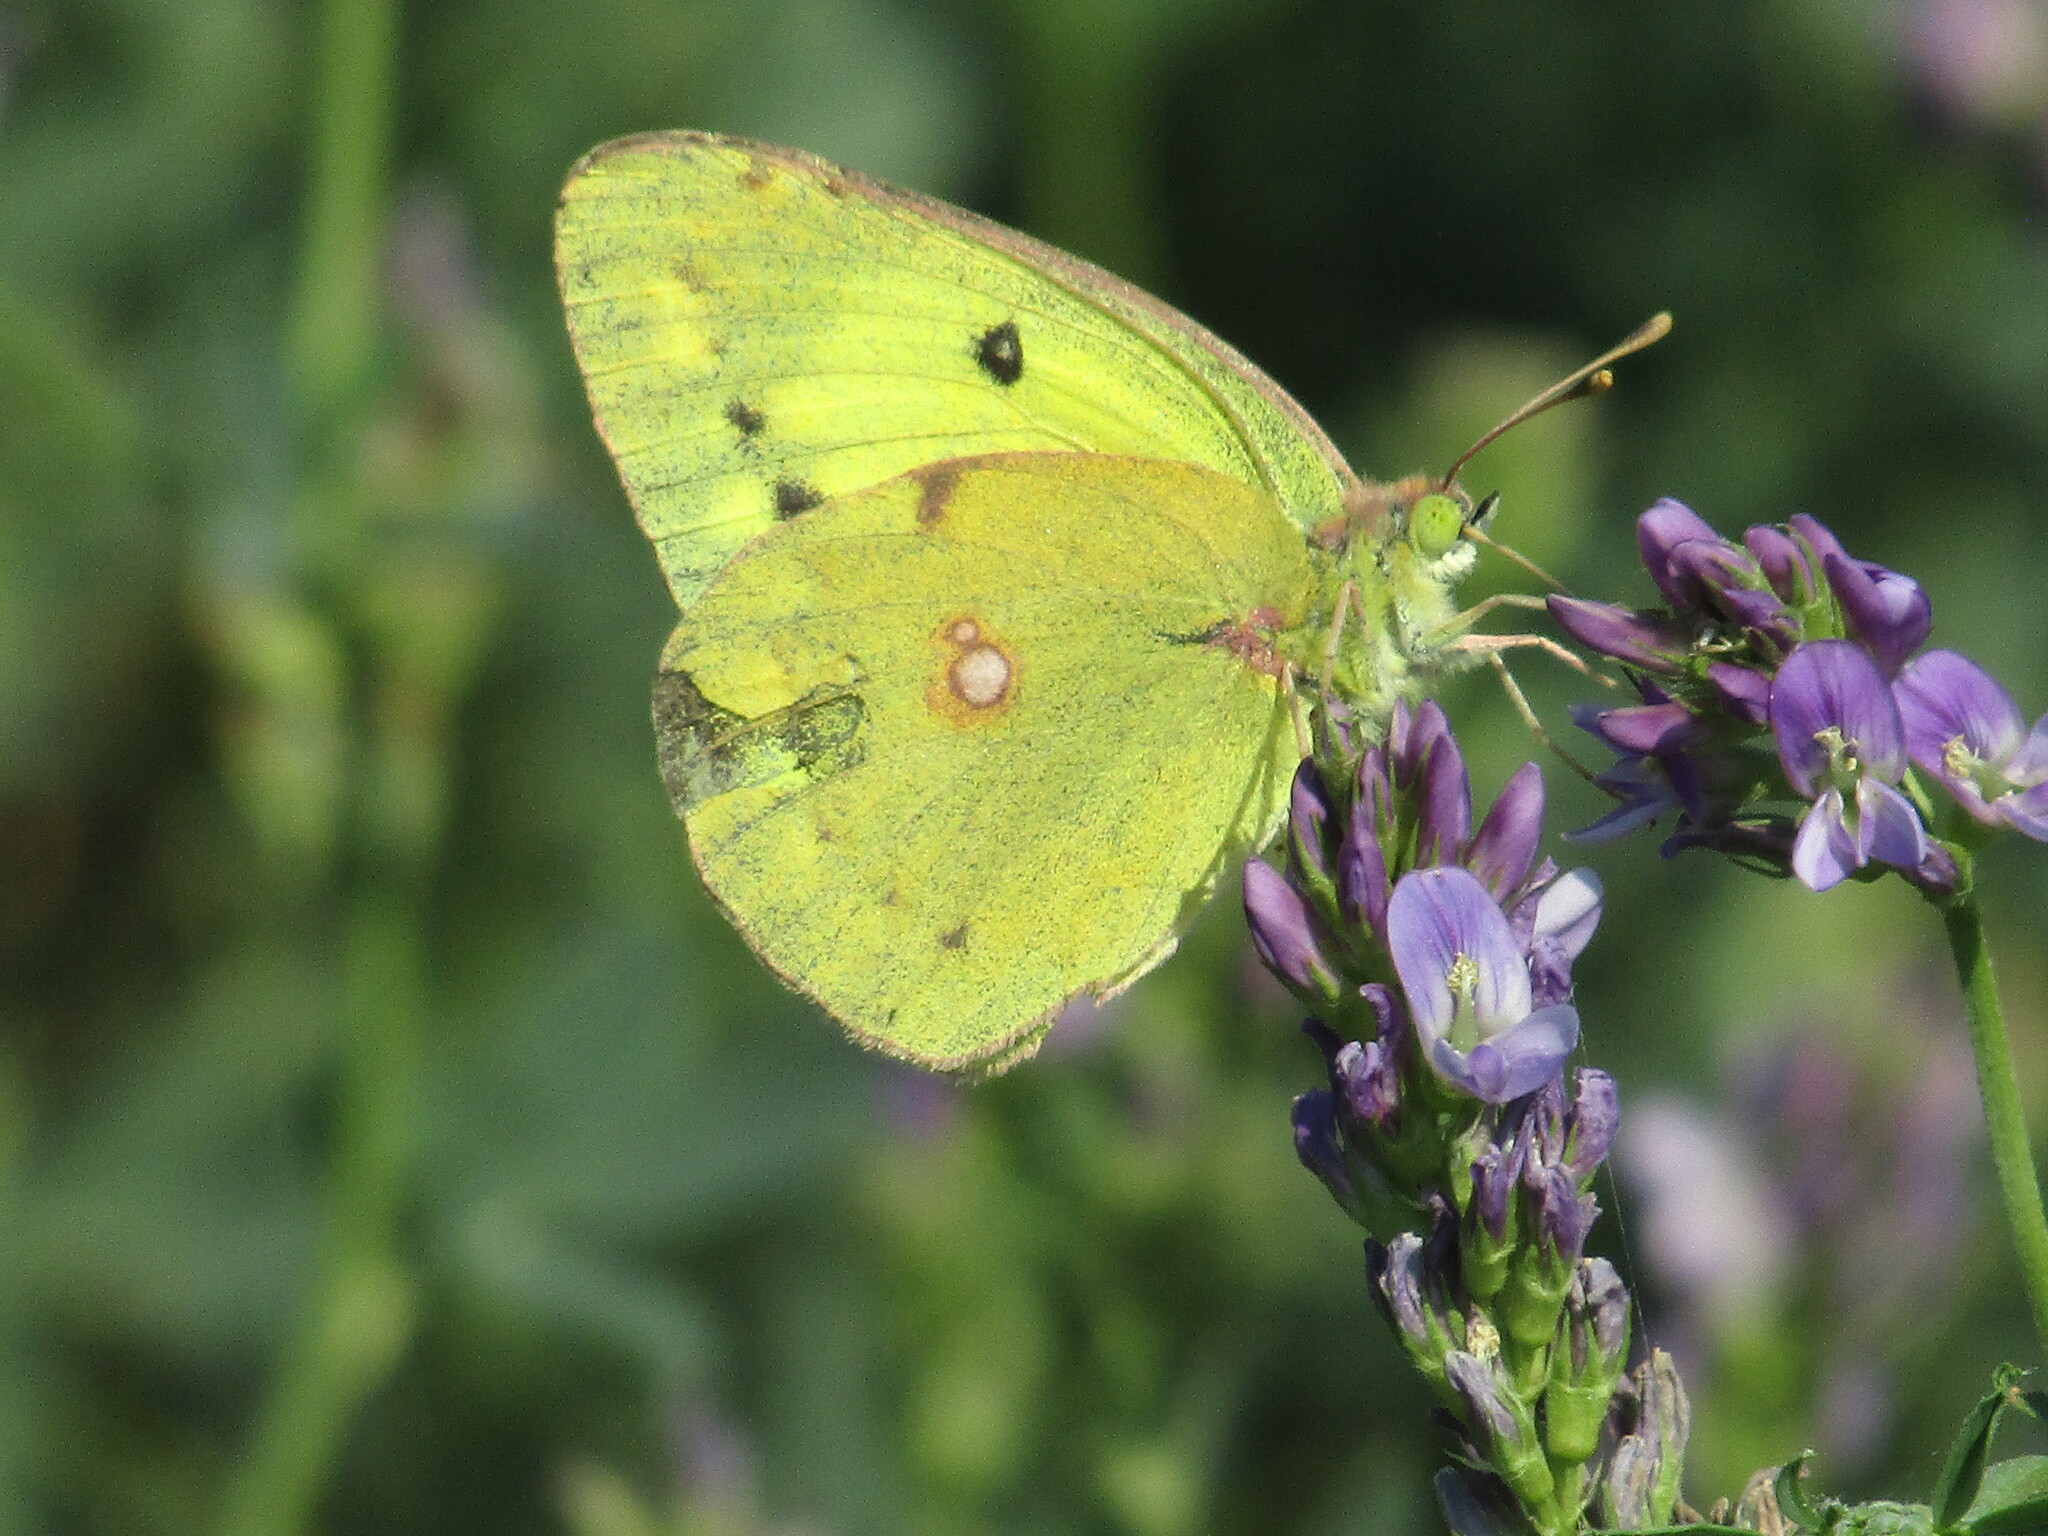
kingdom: Animalia
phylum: Arthropoda
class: Insecta
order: Lepidoptera
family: Pieridae
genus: Colias
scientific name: Colias erate
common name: Eastern pale clouded yellow
